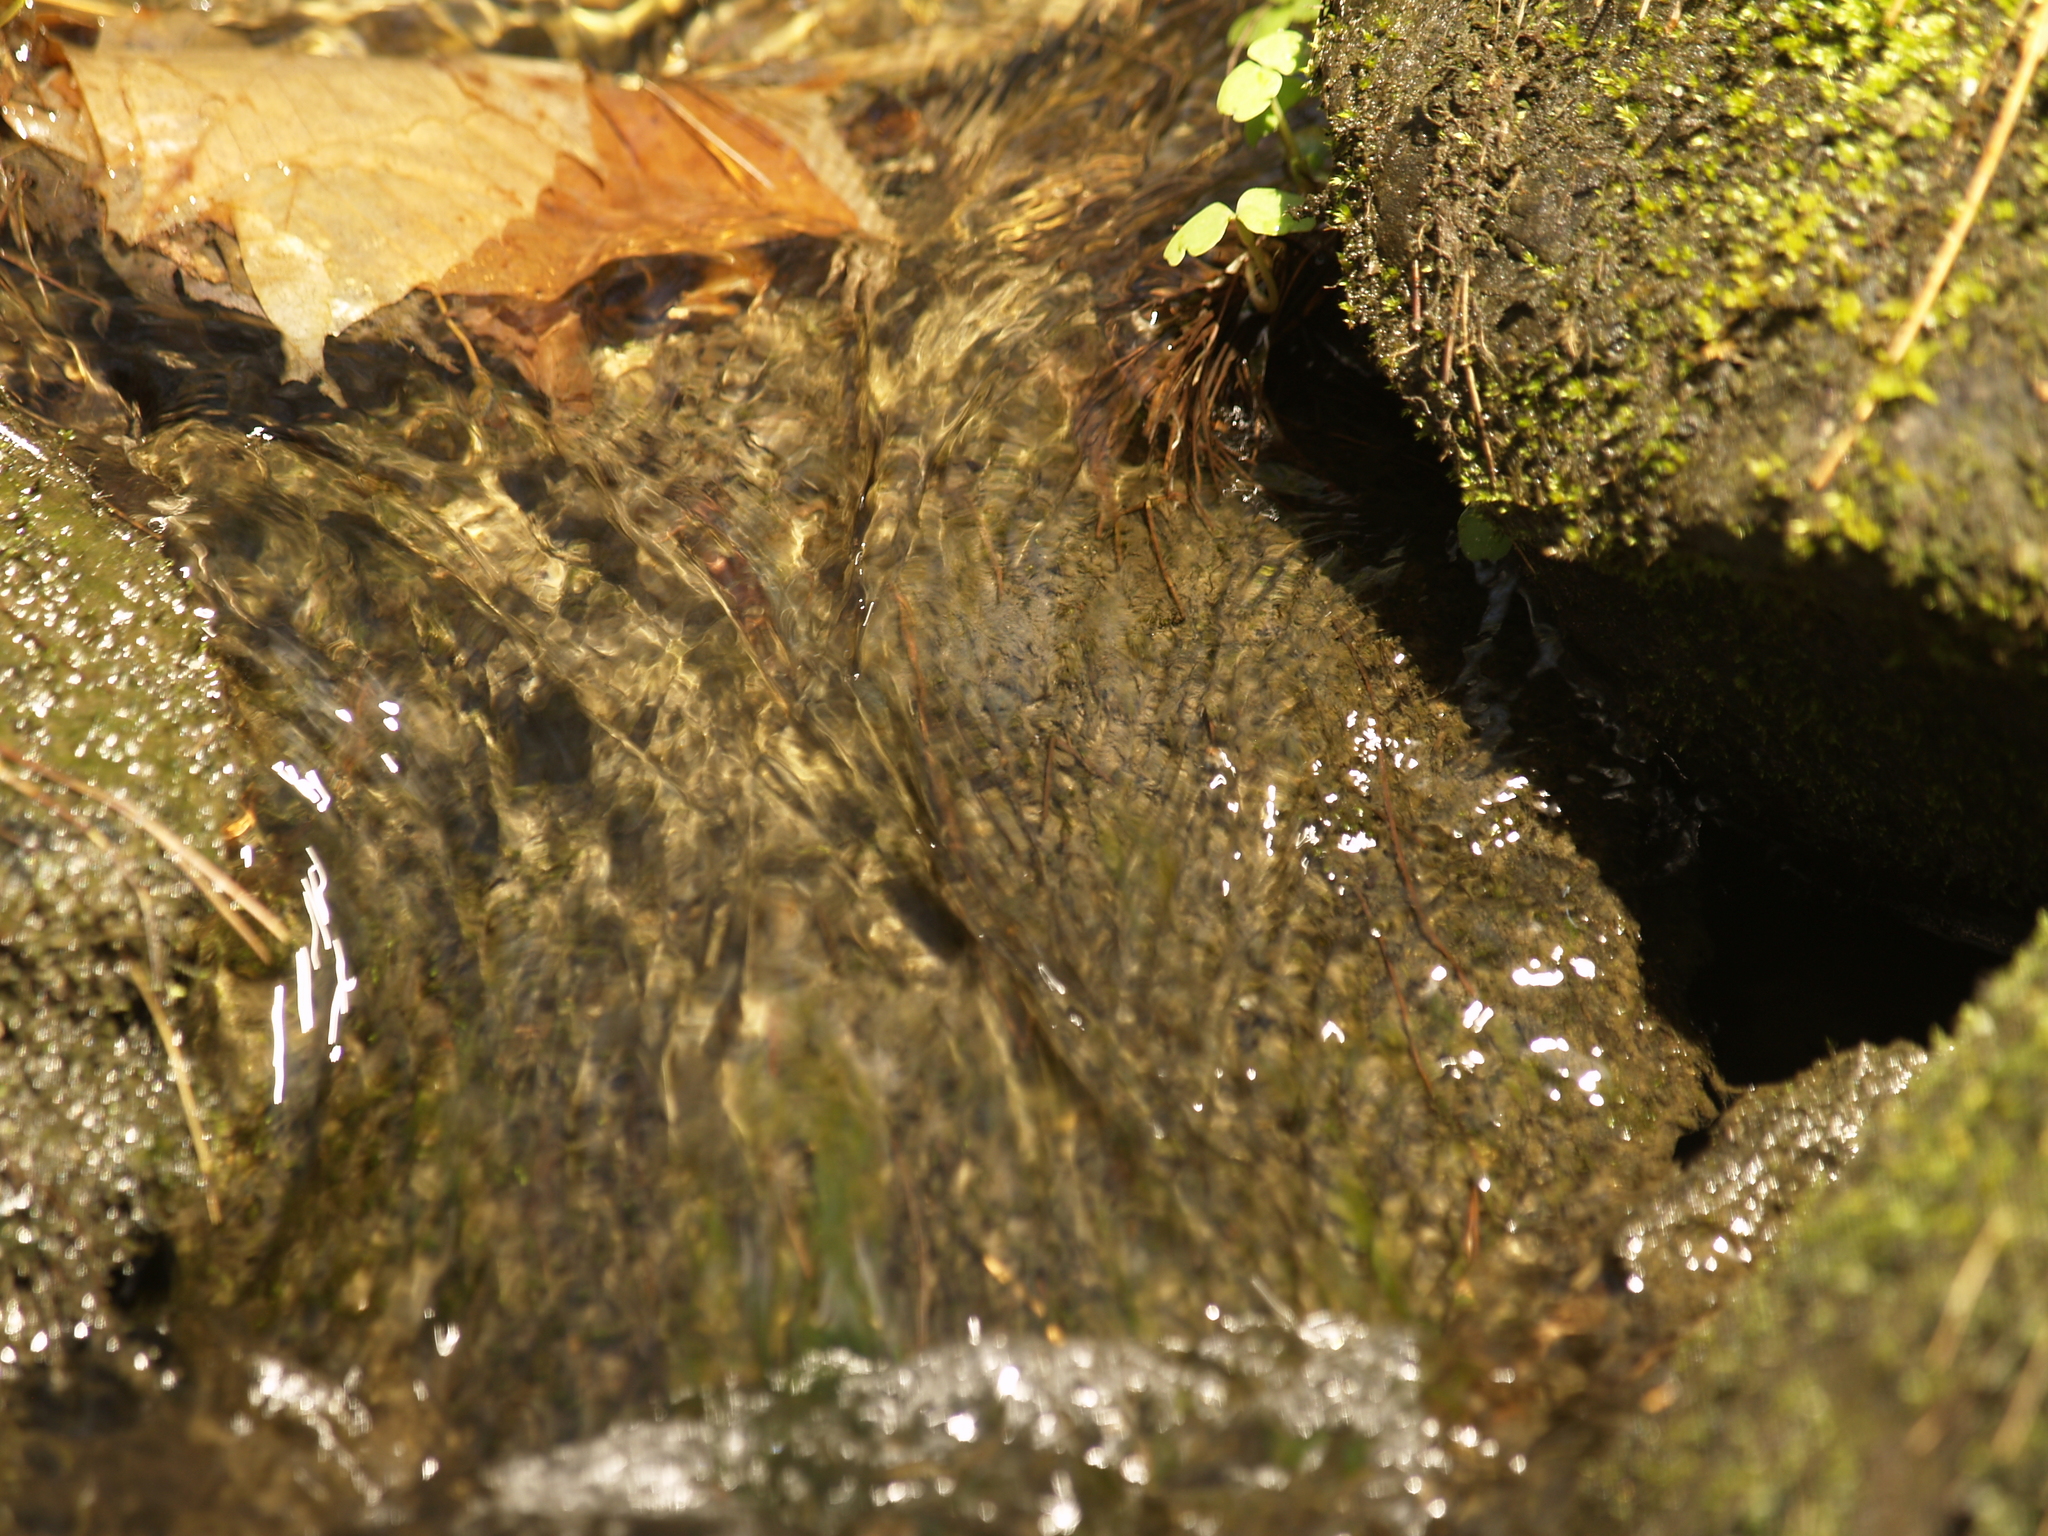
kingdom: Plantae
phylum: Tracheophyta
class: Magnoliopsida
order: Ericales
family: Balsaminaceae
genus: Impatiens
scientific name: Impatiens
